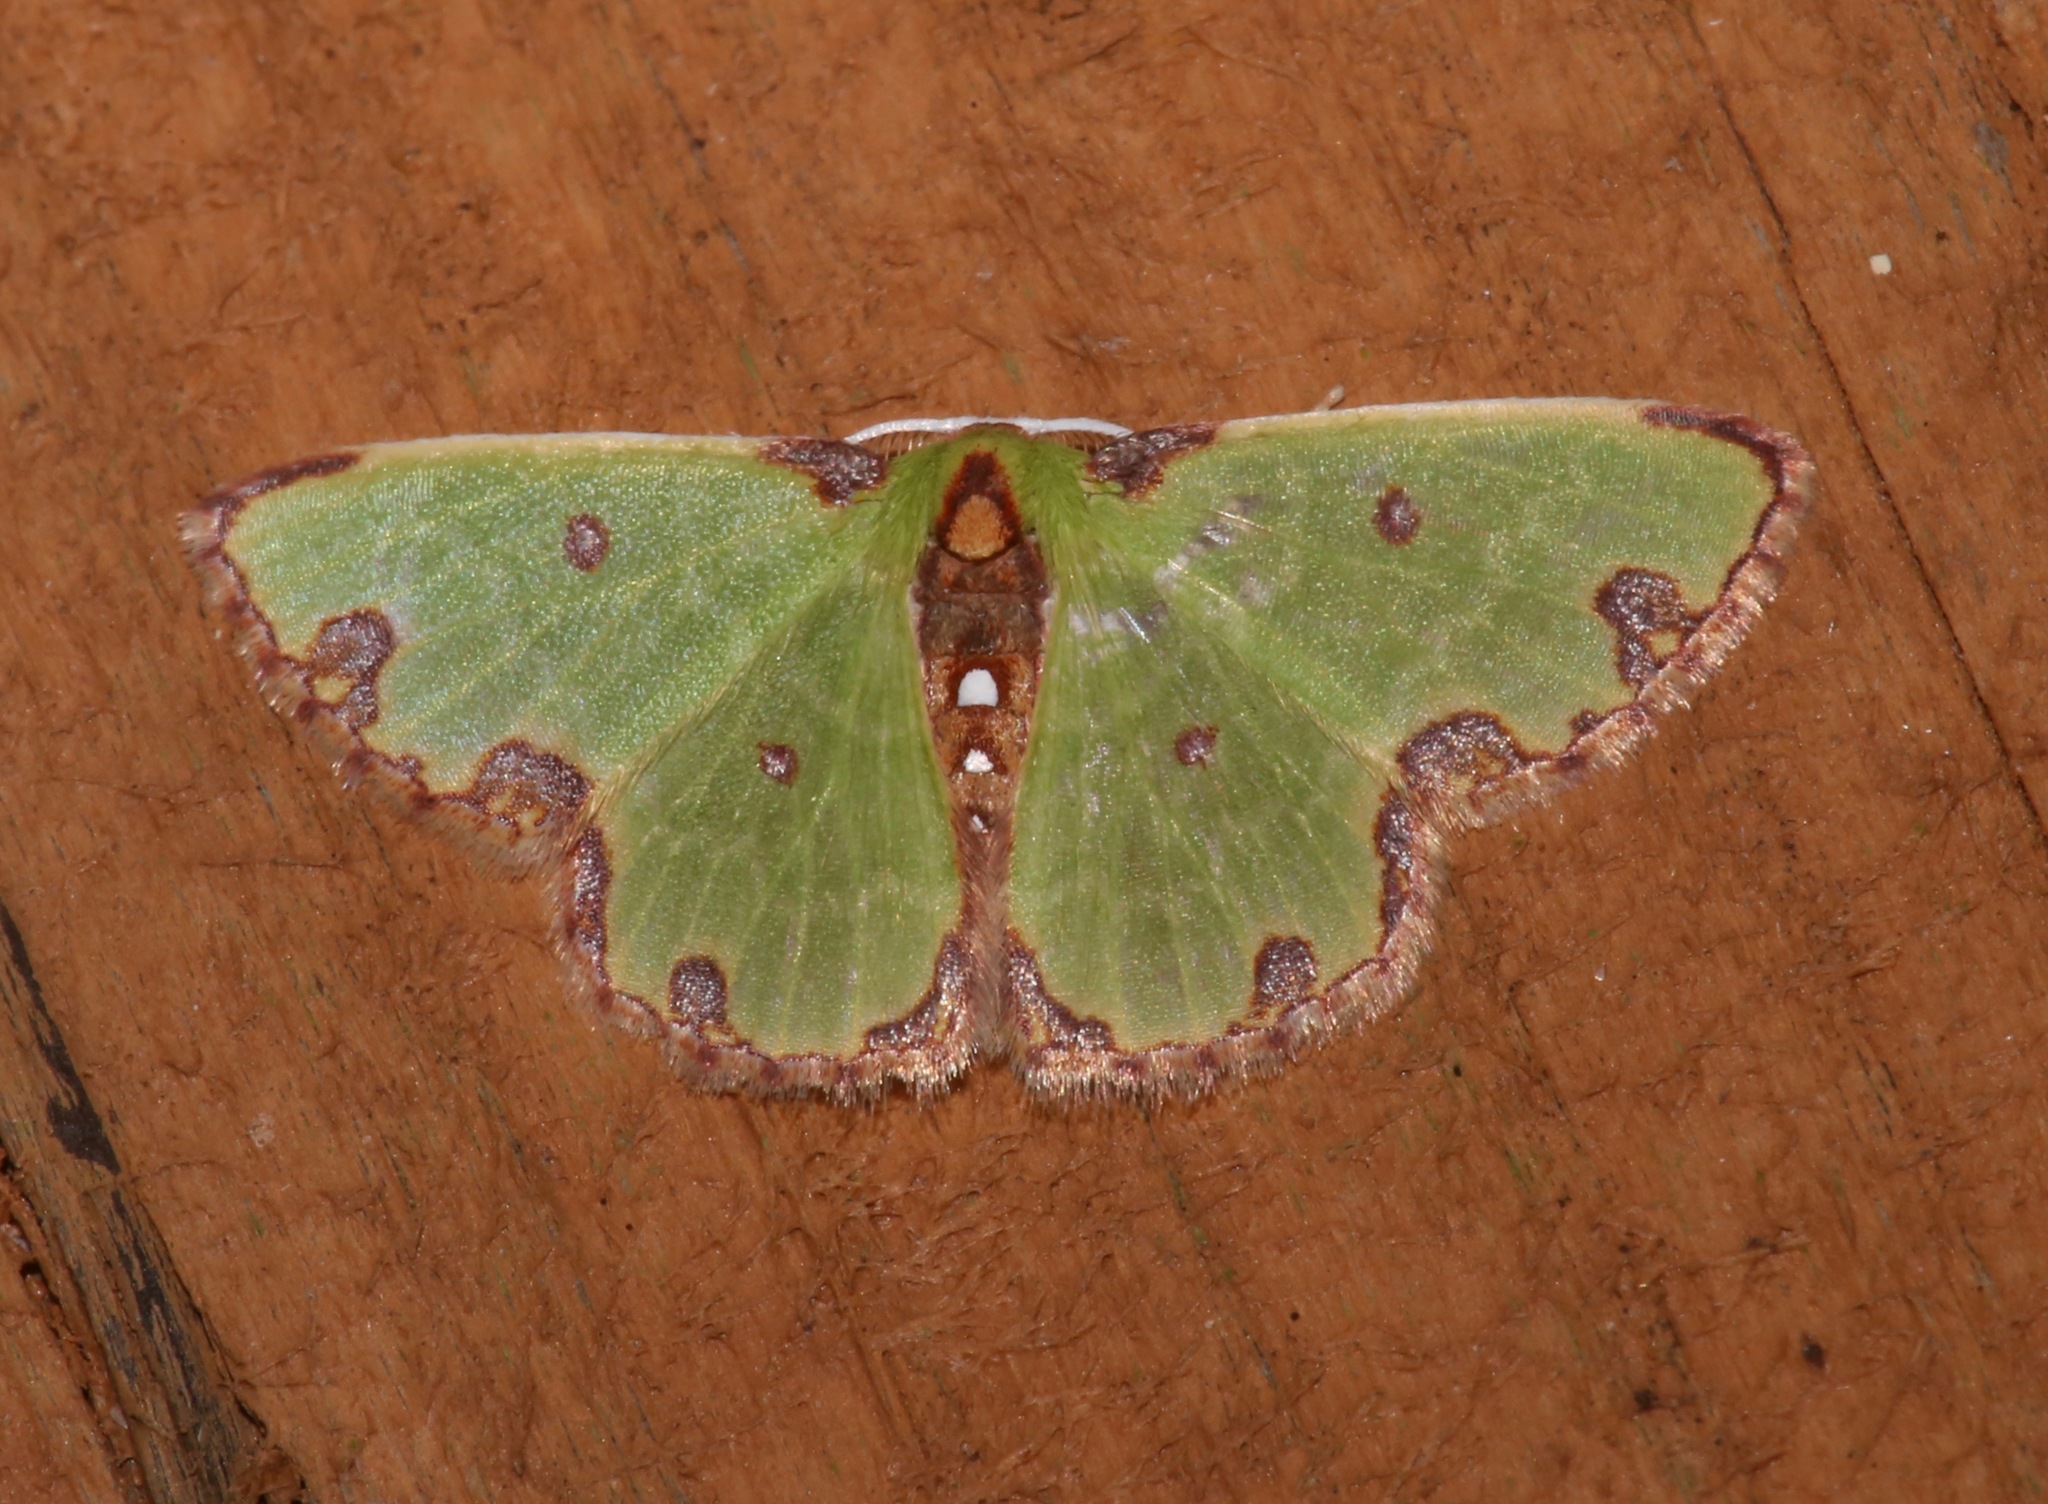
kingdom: Animalia
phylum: Arthropoda
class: Insecta
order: Lepidoptera
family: Geometridae
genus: Synchlora
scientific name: Synchlora xysteraria
